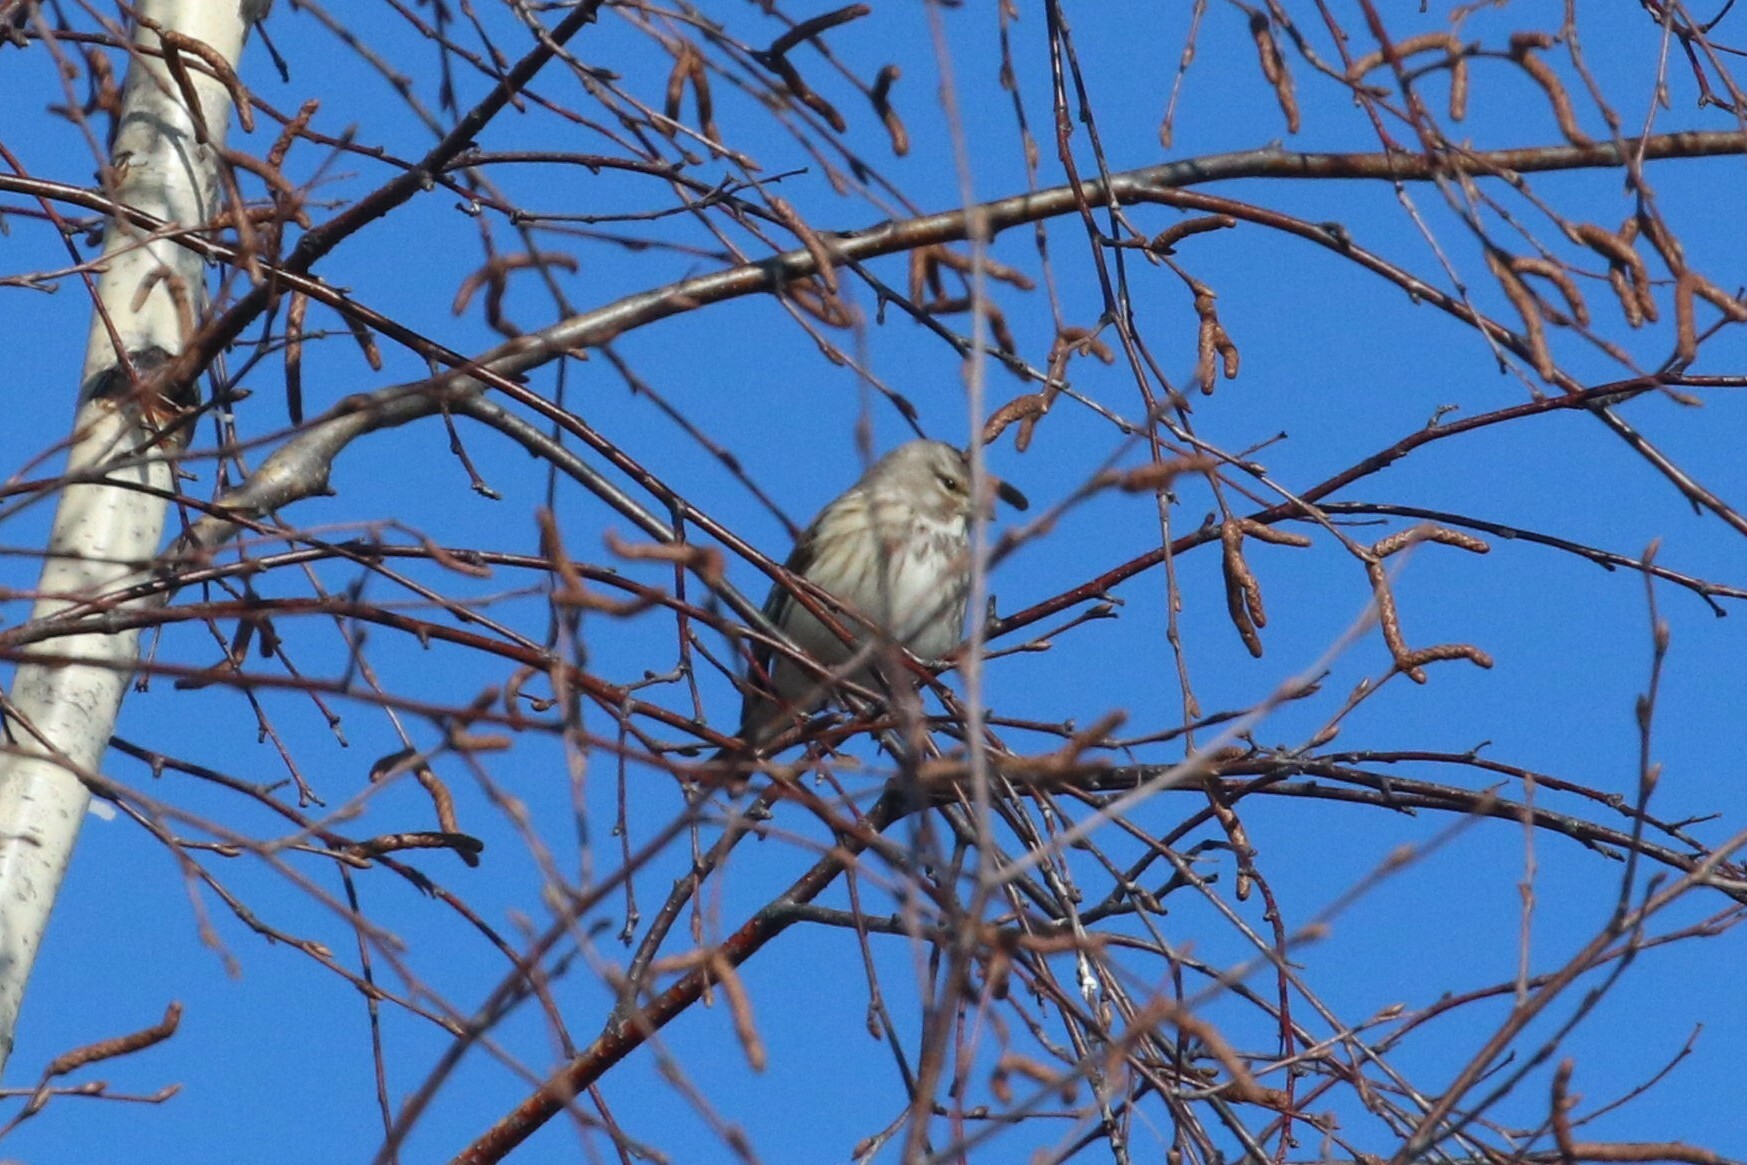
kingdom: Animalia
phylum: Chordata
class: Aves
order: Passeriformes
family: Fringillidae
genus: Linaria
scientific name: Linaria cannabina
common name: Common linnet
